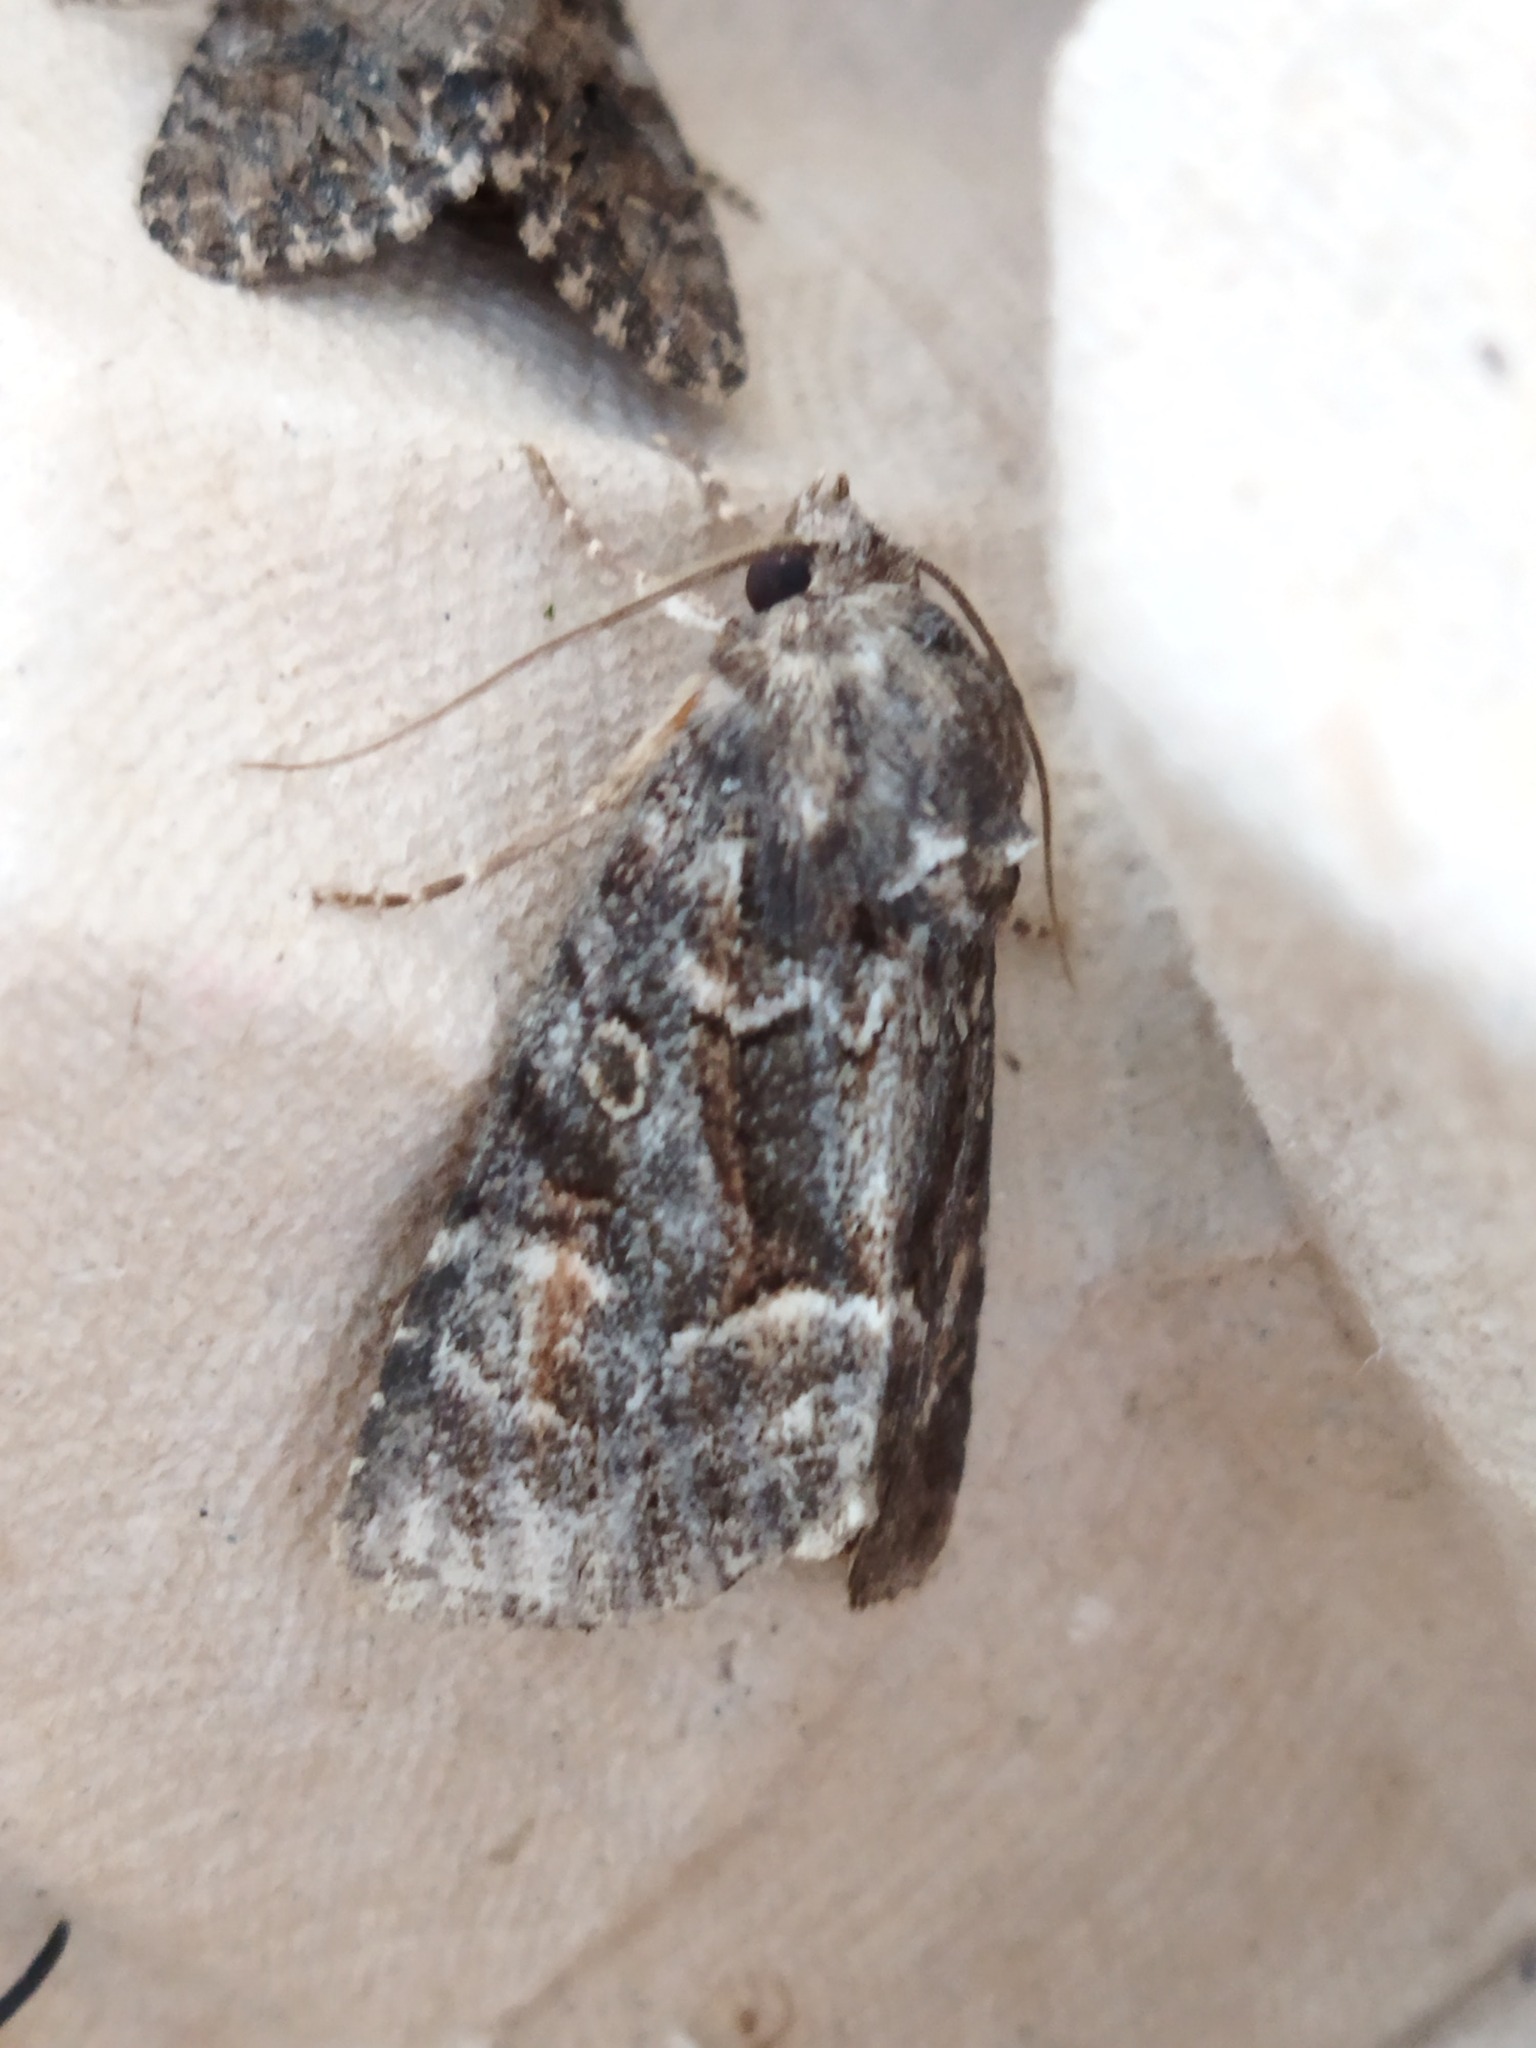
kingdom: Animalia
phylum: Arthropoda
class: Insecta
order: Lepidoptera
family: Noctuidae
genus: Thalpophila
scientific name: Thalpophila matura
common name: Straw underwing
